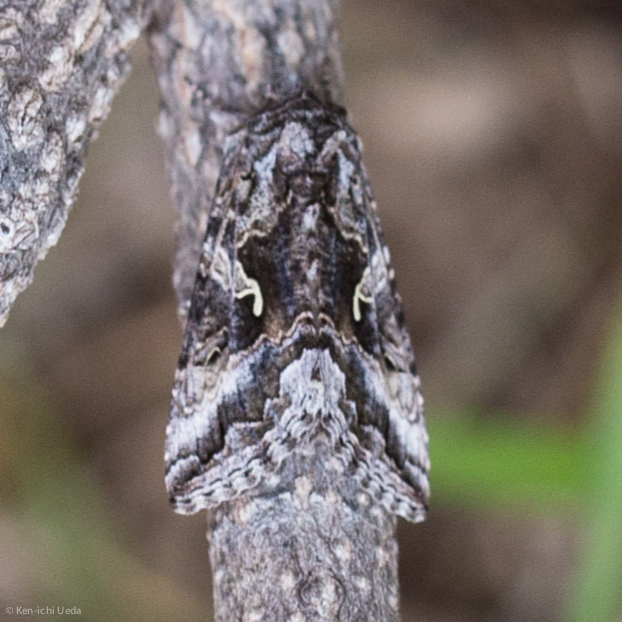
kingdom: Animalia
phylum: Arthropoda
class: Insecta
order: Lepidoptera
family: Noctuidae
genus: Autographa
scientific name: Autographa californica
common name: Alfalfa looper
